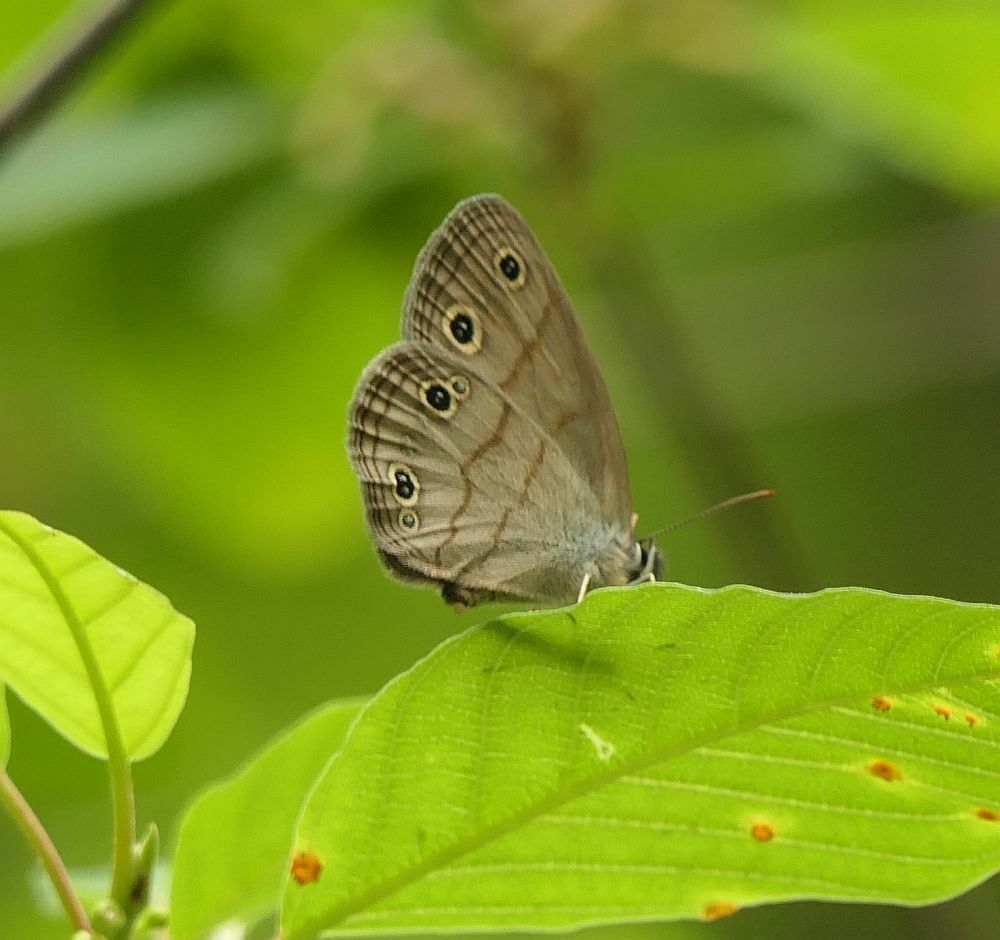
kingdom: Animalia
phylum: Arthropoda
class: Insecta
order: Lepidoptera
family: Nymphalidae
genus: Euptychia
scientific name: Euptychia cymela
